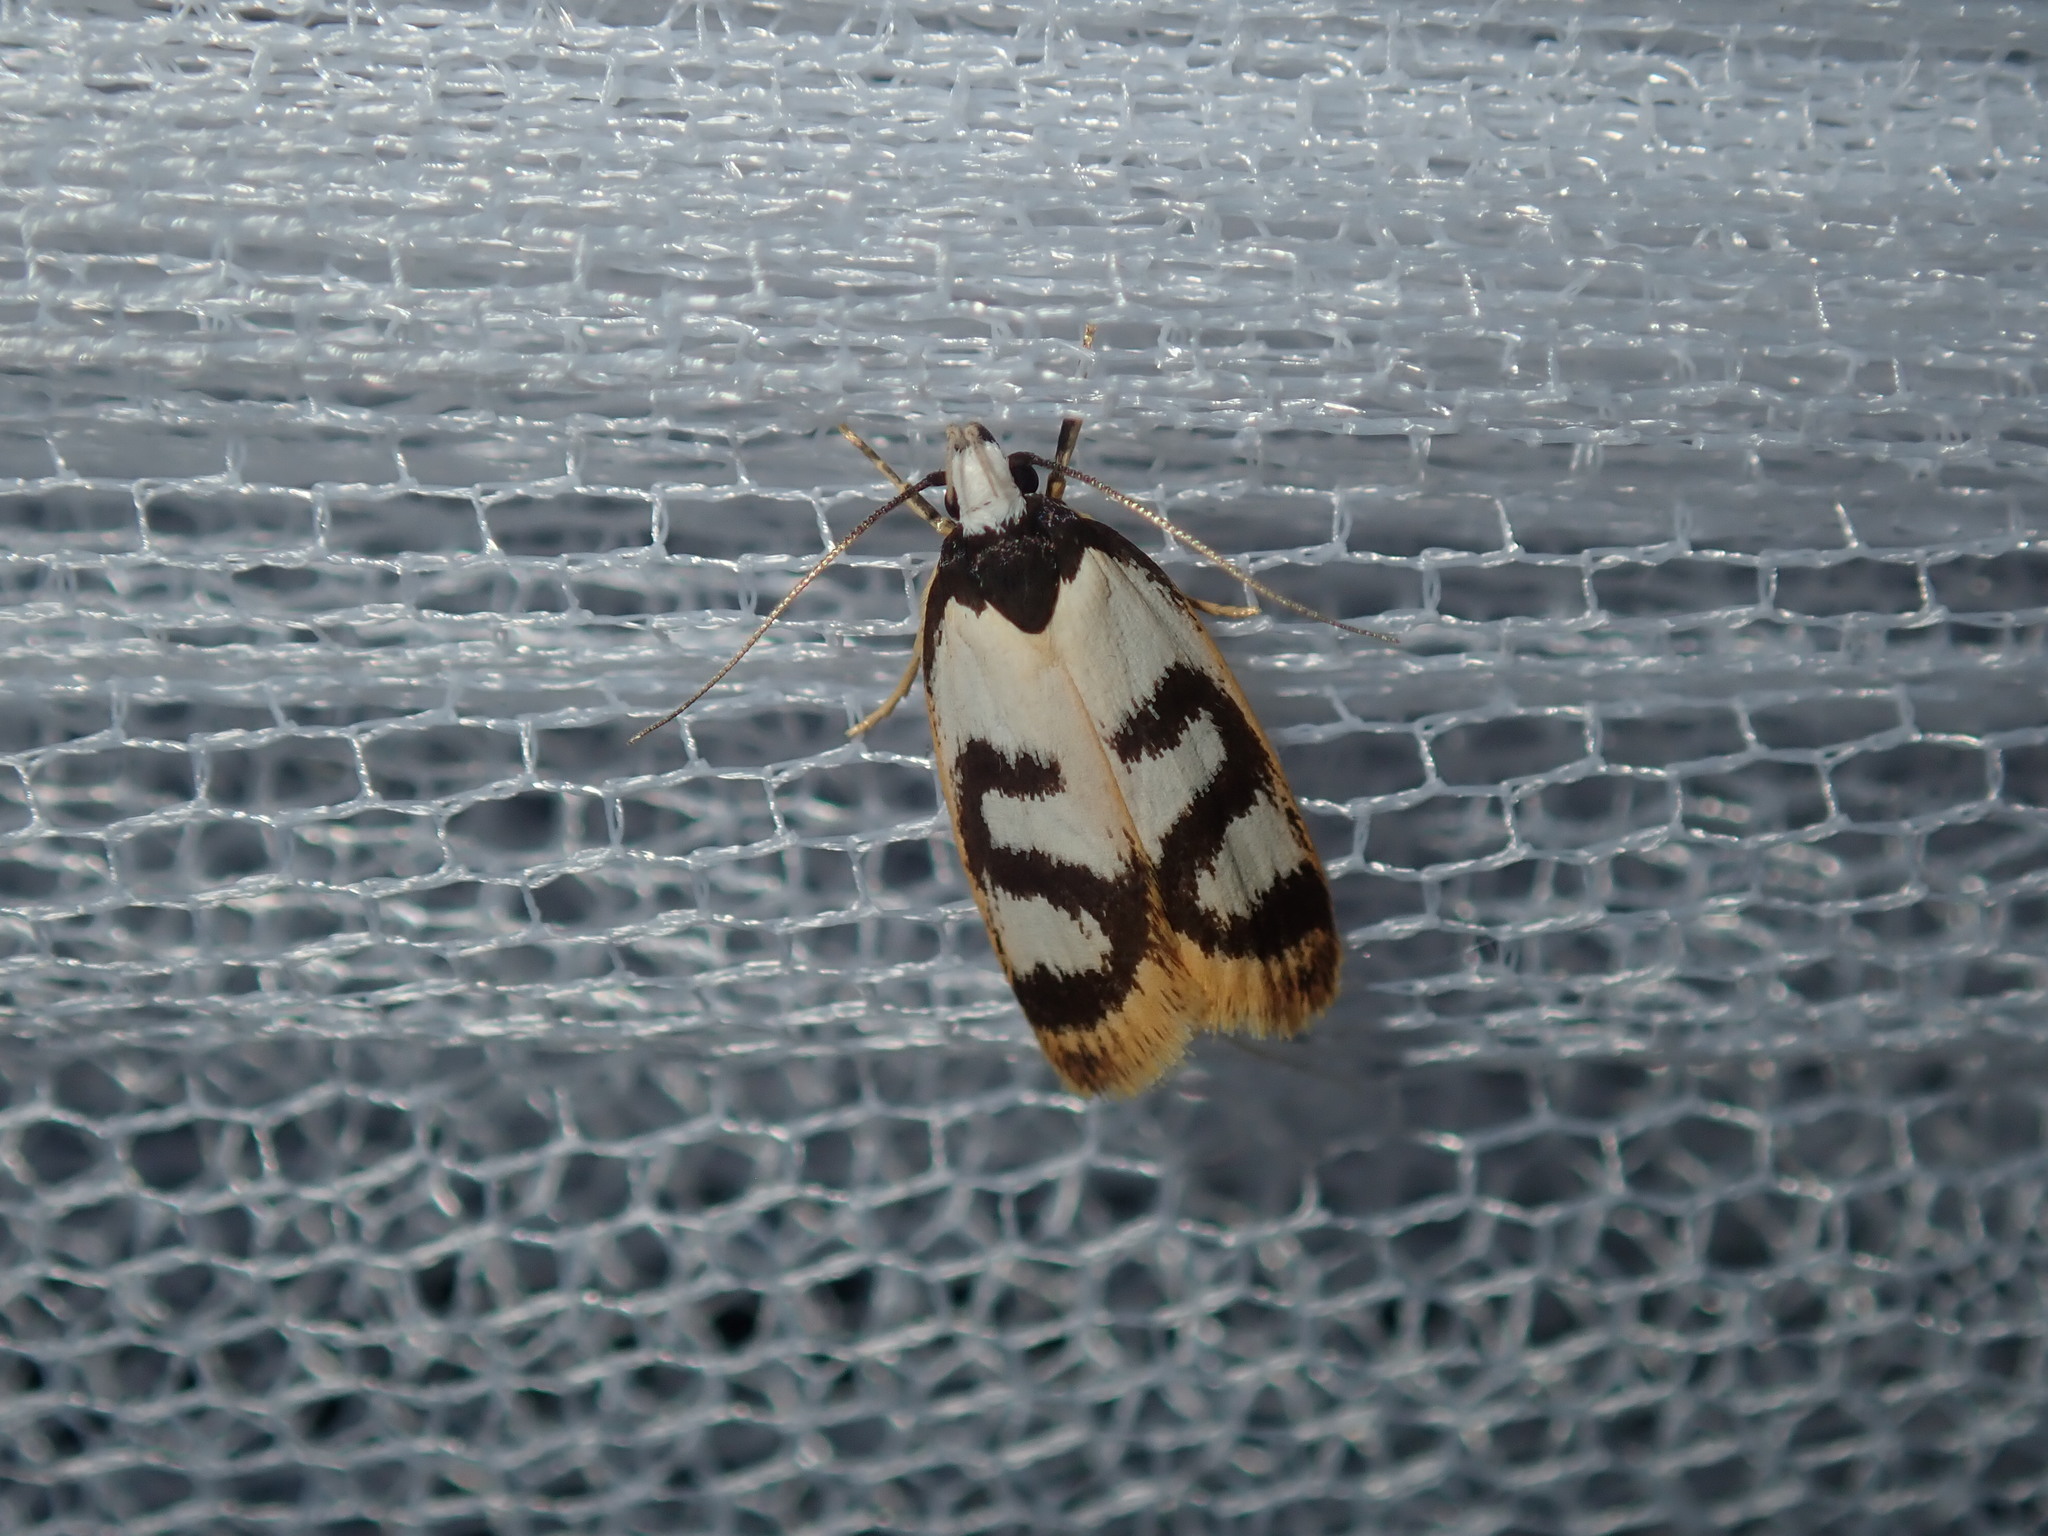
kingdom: Animalia
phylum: Arthropoda
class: Insecta
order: Lepidoptera
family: Oecophoridae
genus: Eulechria
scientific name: Eulechria sigmophora
